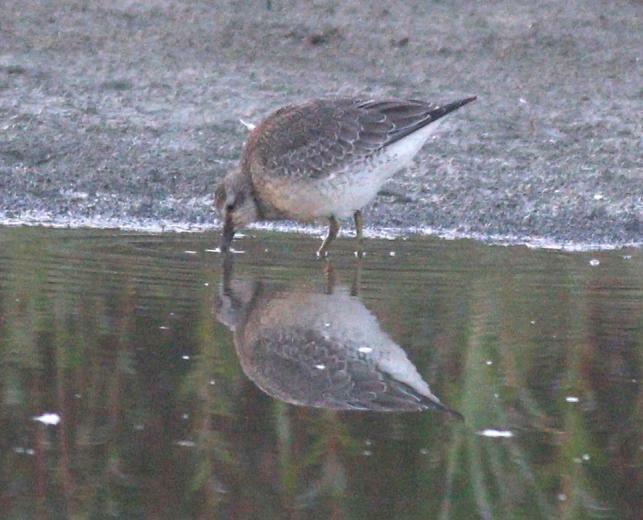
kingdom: Animalia
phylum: Chordata
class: Aves
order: Charadriiformes
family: Scolopacidae
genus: Calidris
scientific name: Calidris canutus
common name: Red knot
